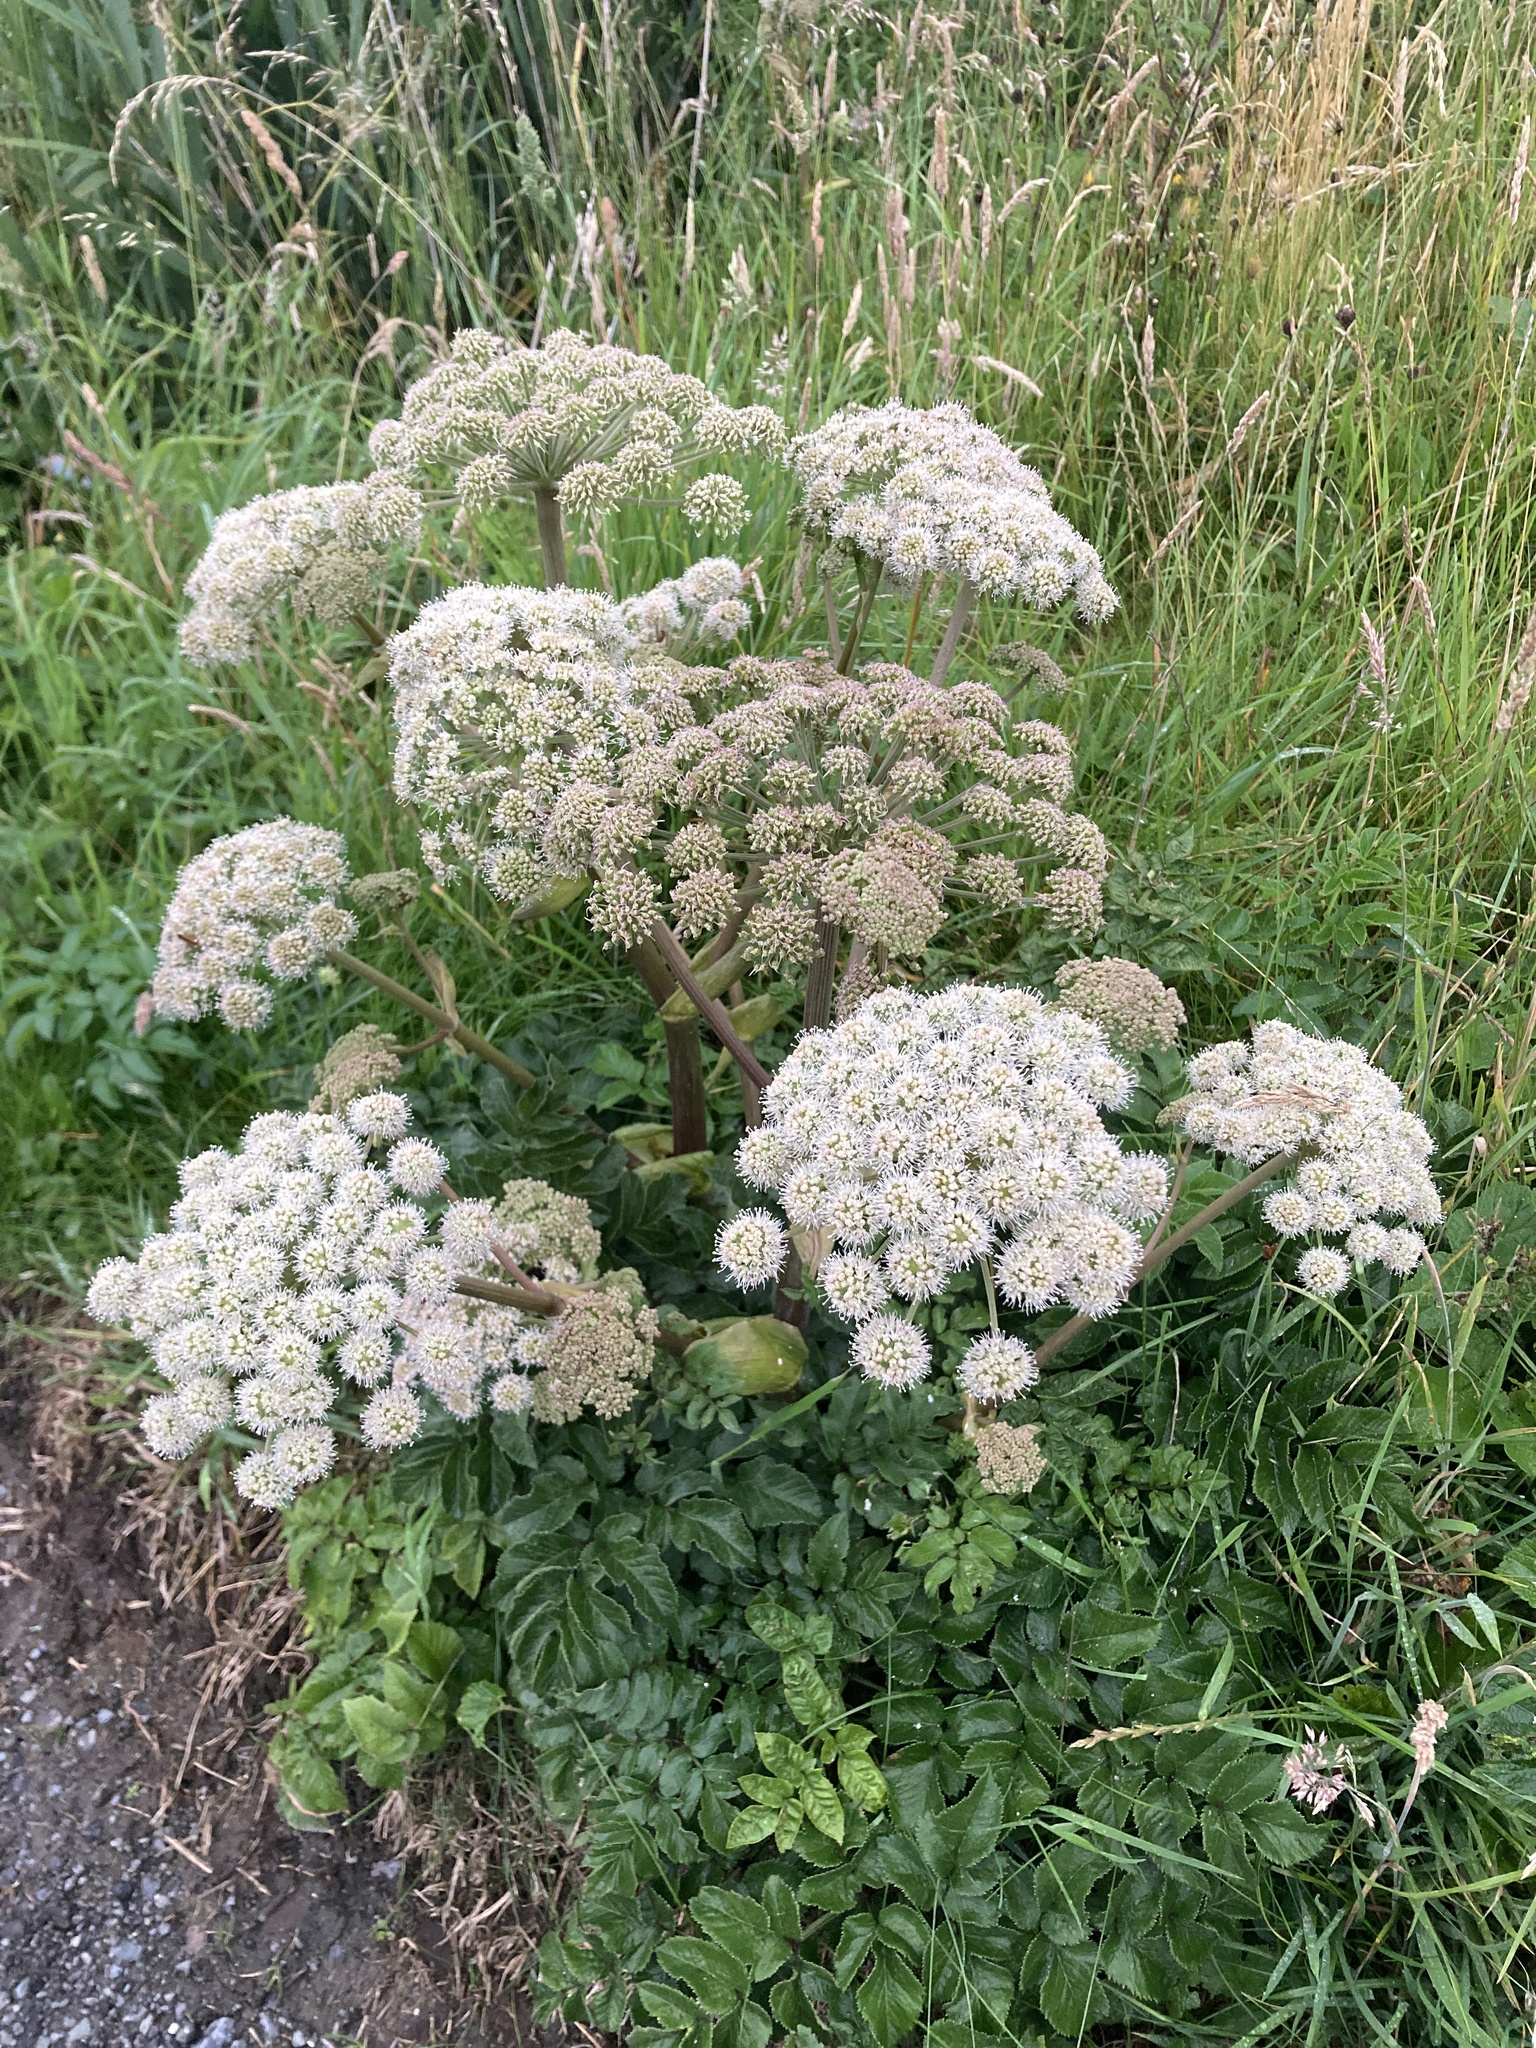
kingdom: Plantae
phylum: Tracheophyta
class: Magnoliopsida
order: Apiales
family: Apiaceae
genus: Angelica
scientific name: Angelica sylvestris
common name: Wild angelica
